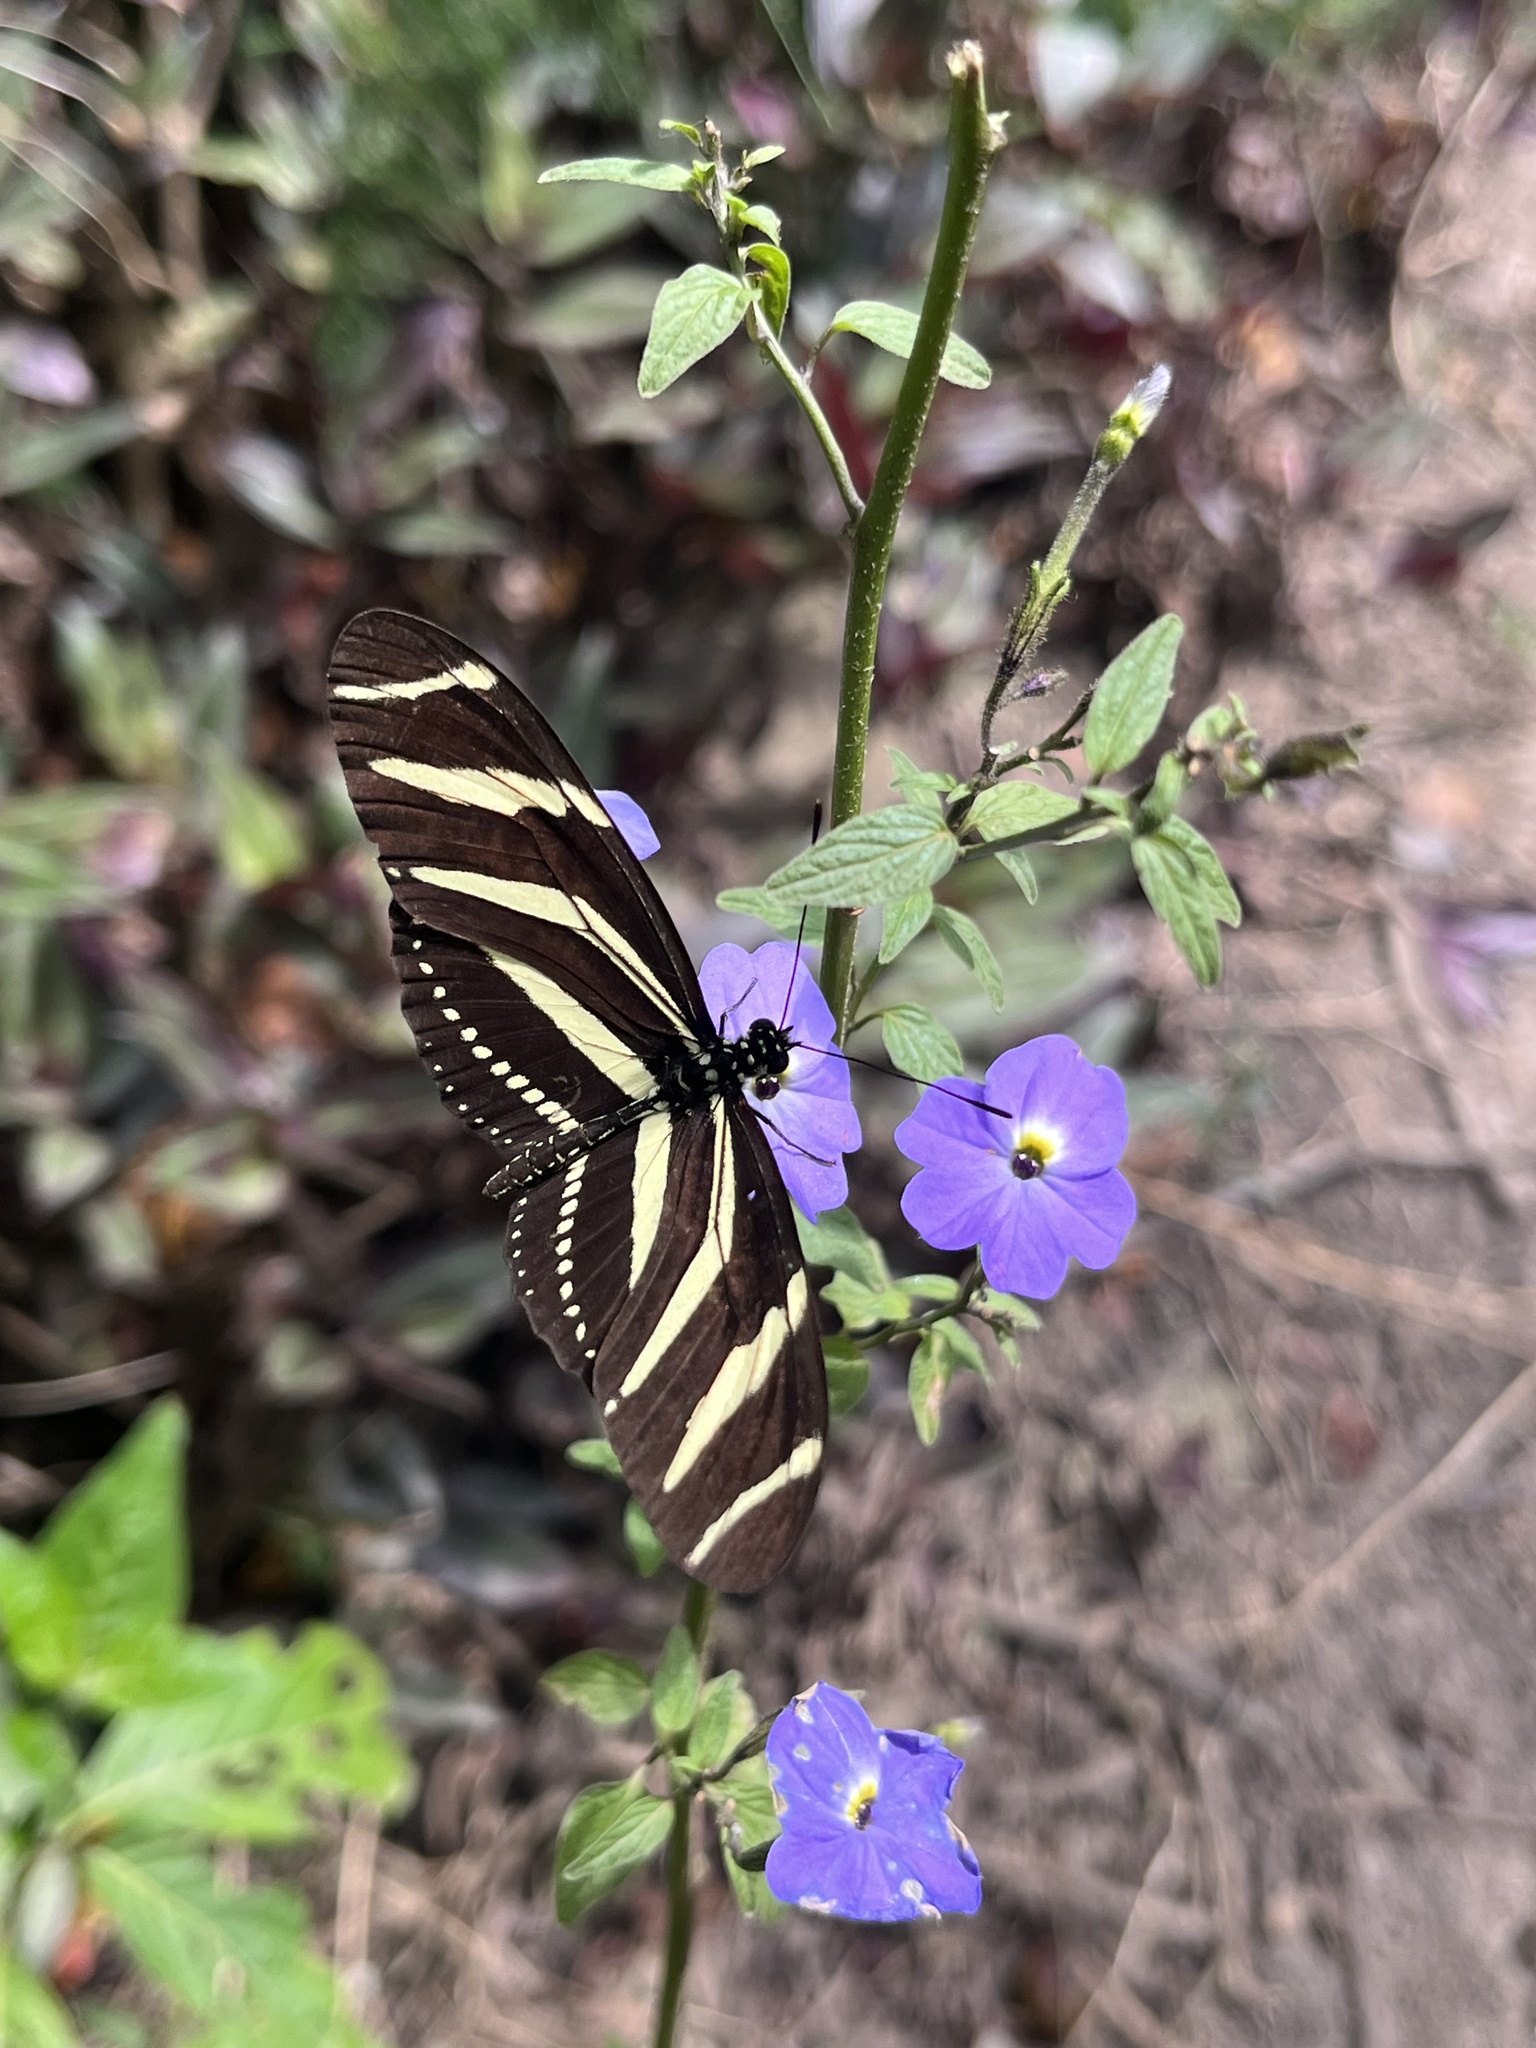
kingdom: Animalia
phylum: Arthropoda
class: Insecta
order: Lepidoptera
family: Nymphalidae
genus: Heliconius
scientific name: Heliconius charithonia
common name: Zebra long wing
